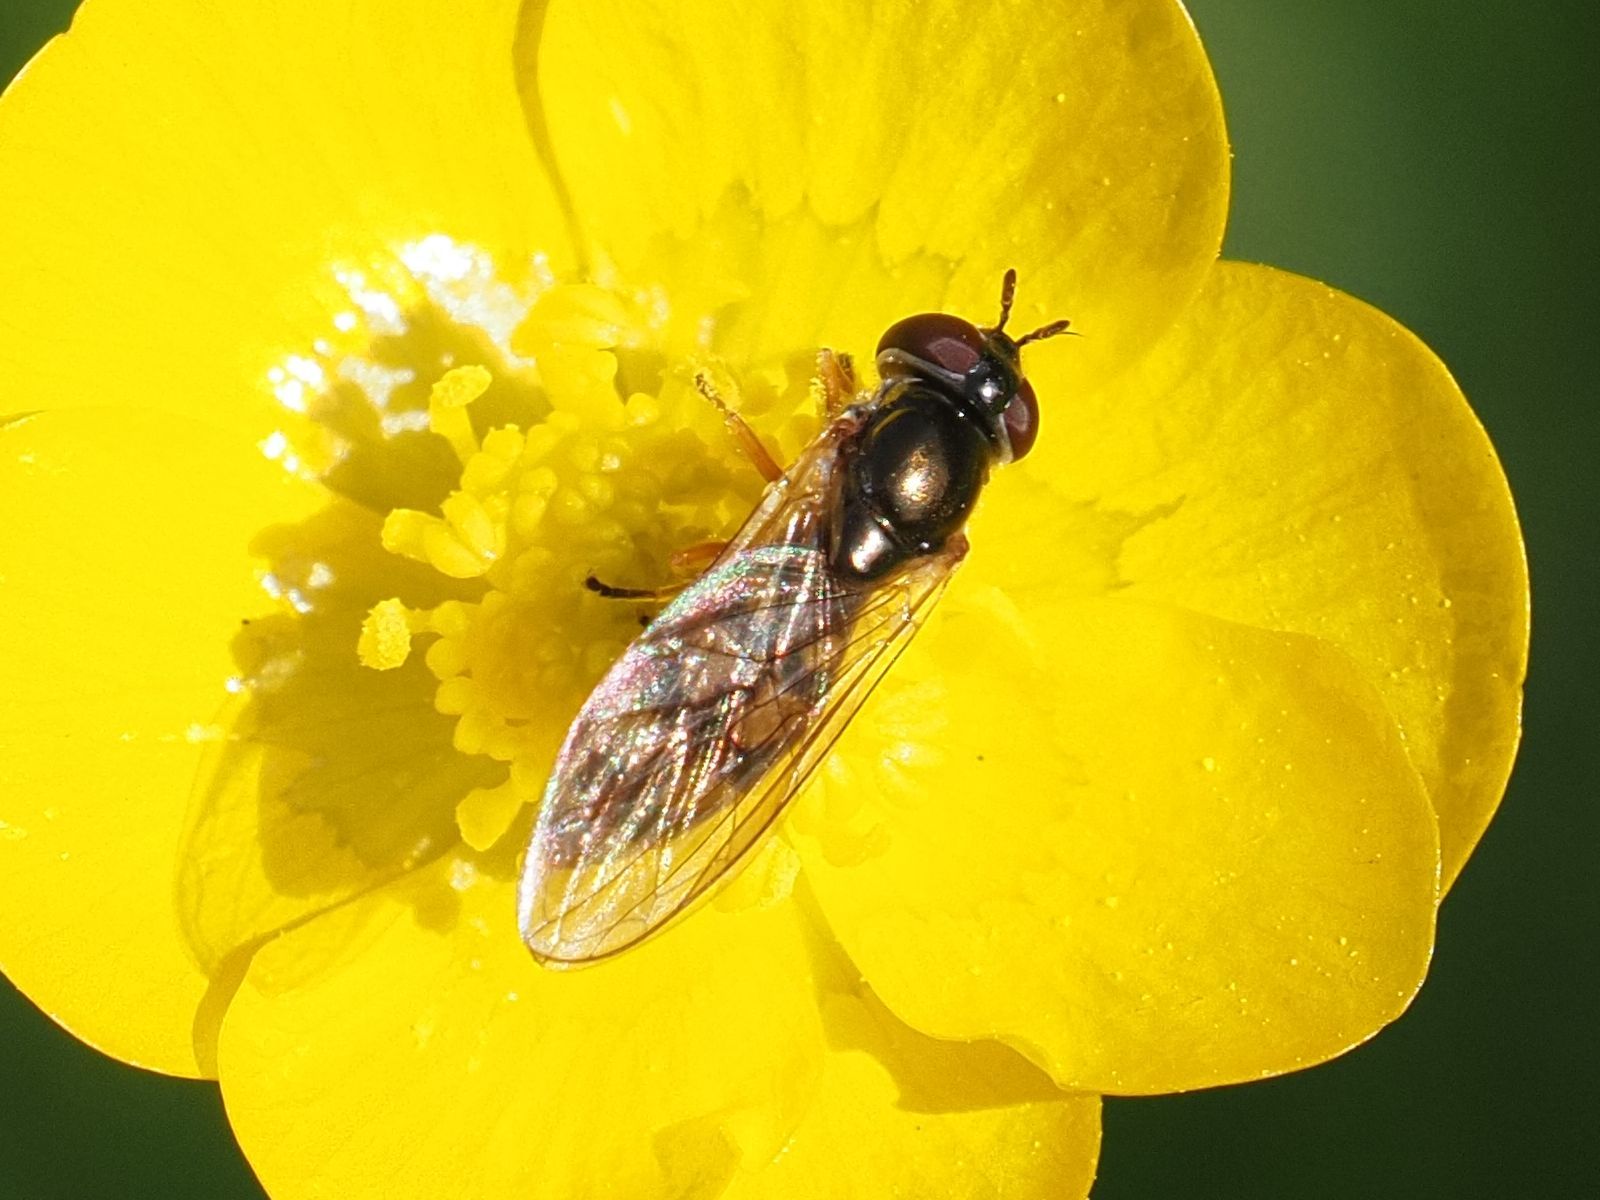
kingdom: Animalia
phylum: Arthropoda
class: Insecta
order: Diptera
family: Syrphidae
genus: Melanostoma
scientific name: Melanostoma mellina
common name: Hover fly
